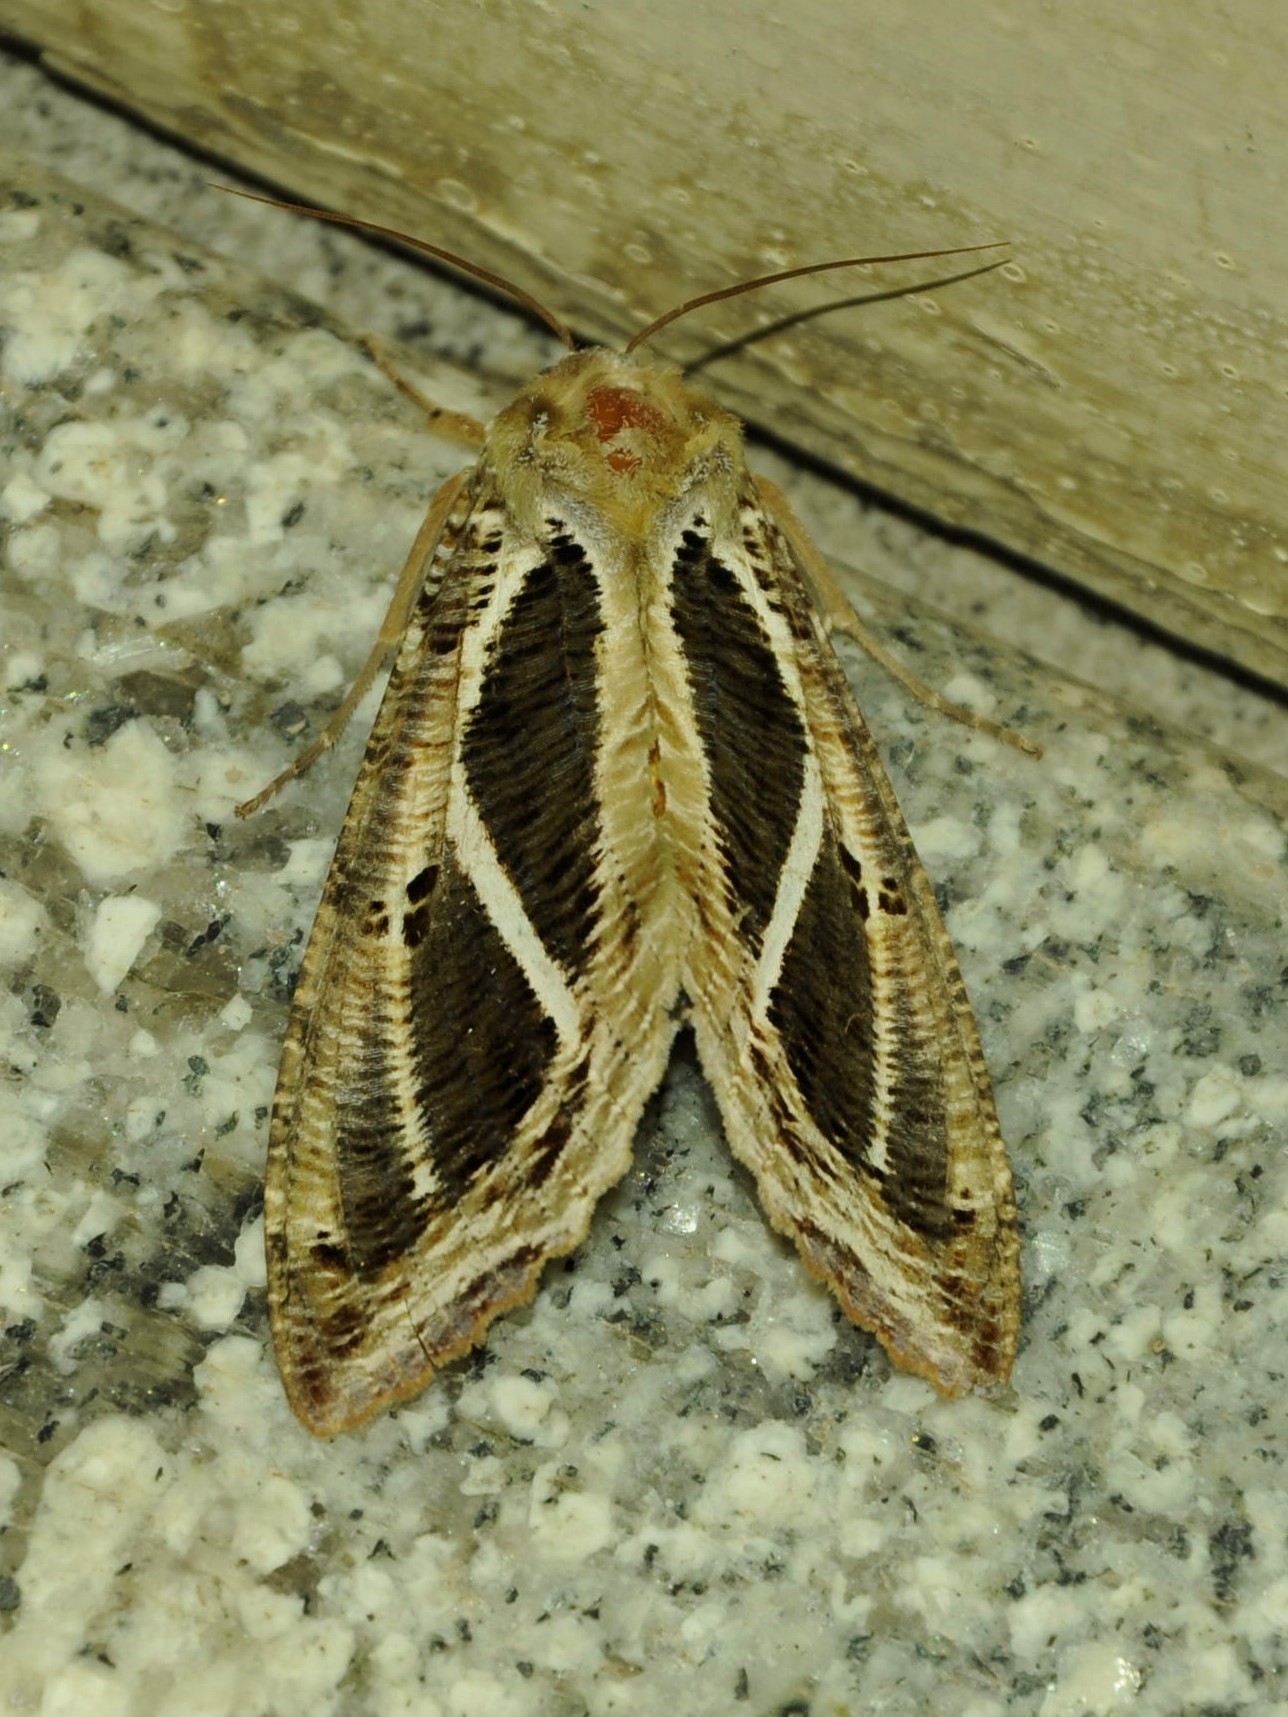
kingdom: Animalia
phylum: Arthropoda
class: Insecta
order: Lepidoptera
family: Erebidae
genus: Eudocima
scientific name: Eudocima materna
